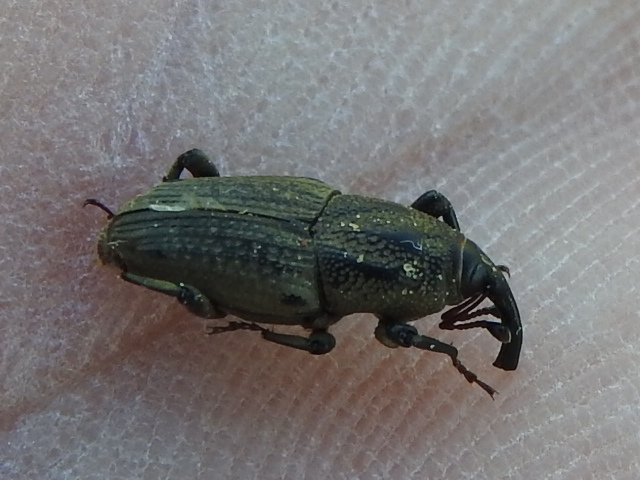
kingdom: Animalia
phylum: Arthropoda
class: Insecta
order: Coleoptera
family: Dryophthoridae
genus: Sphenophorus
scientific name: Sphenophorus venatus
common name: Hunting billbug
